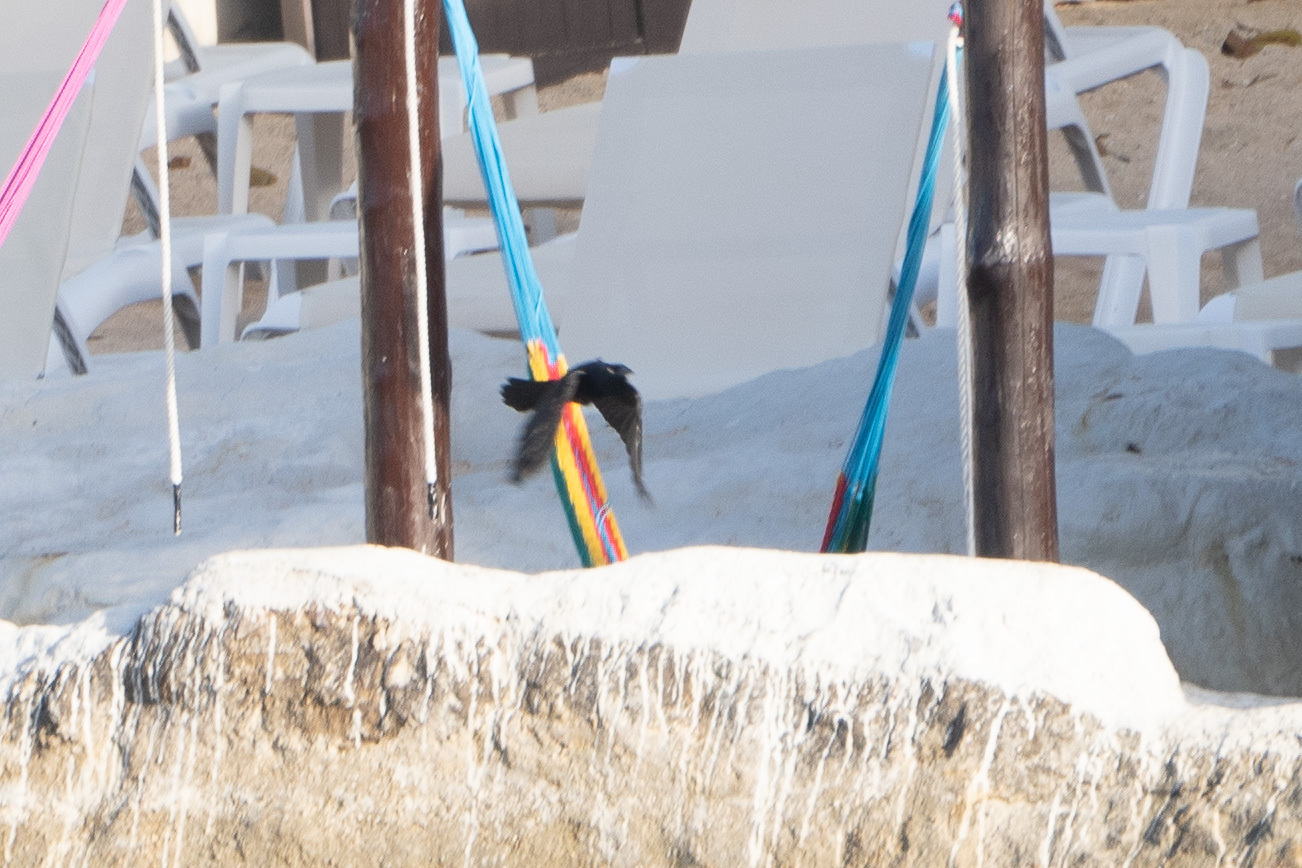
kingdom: Animalia
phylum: Chordata
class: Aves
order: Passeriformes
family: Icteridae
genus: Quiscalus
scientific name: Quiscalus mexicanus
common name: Great-tailed grackle
